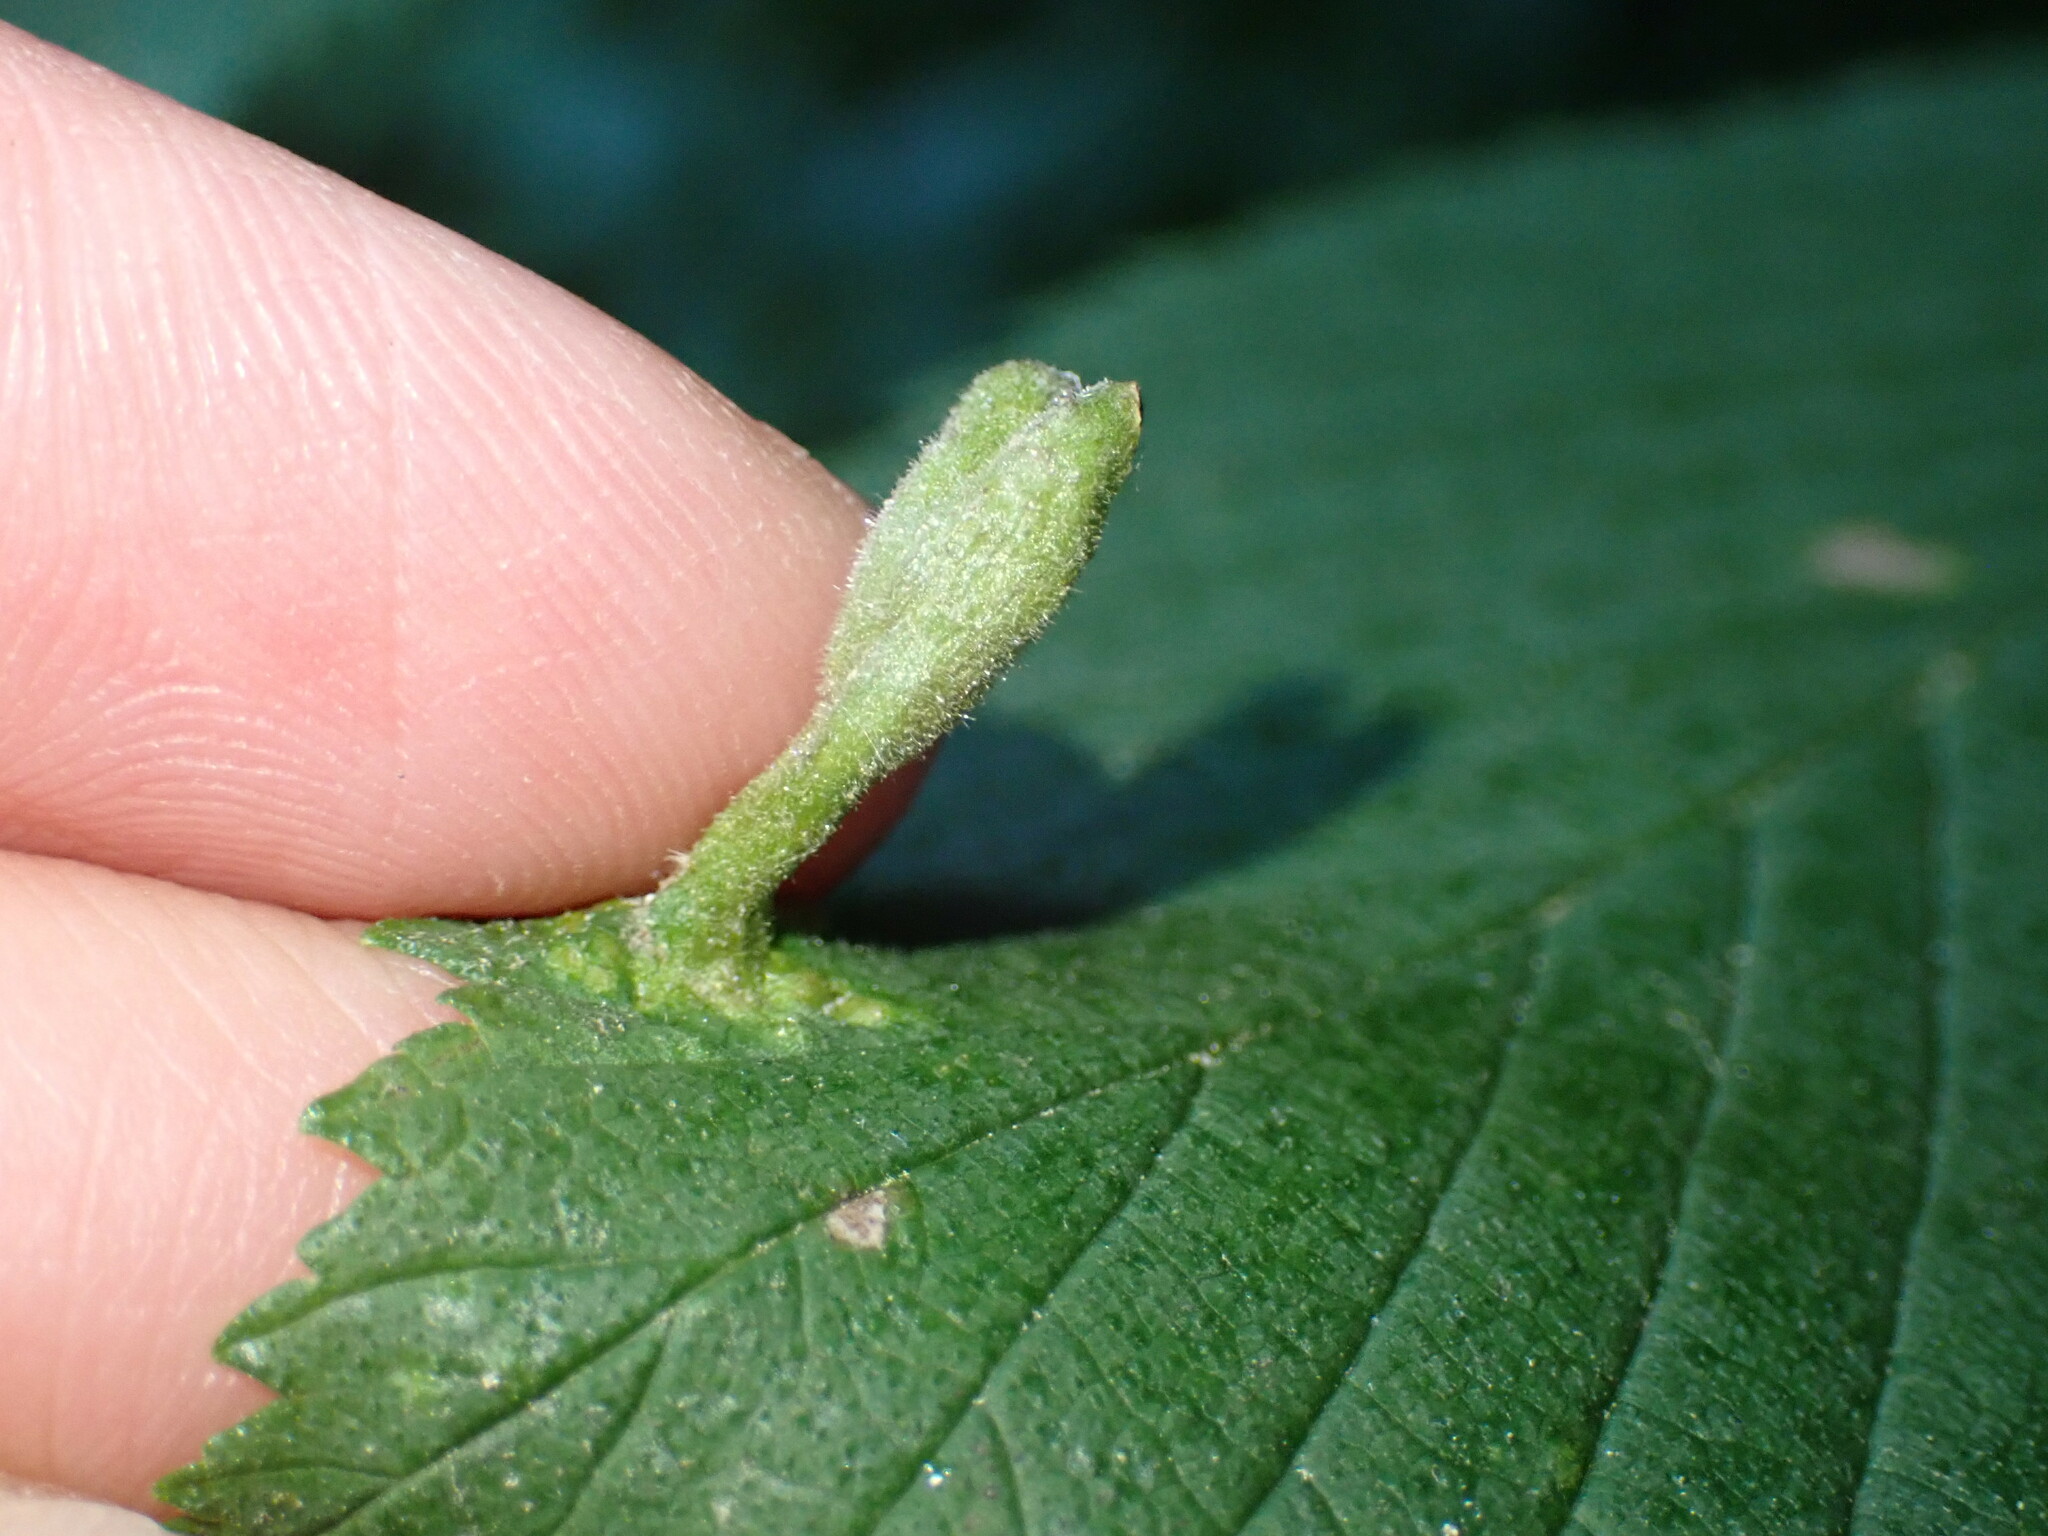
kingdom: Animalia
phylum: Arthropoda
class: Insecta
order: Hemiptera
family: Aphididae
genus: Tetraneura
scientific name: Tetraneura nigriabdominalis
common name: Aphid
